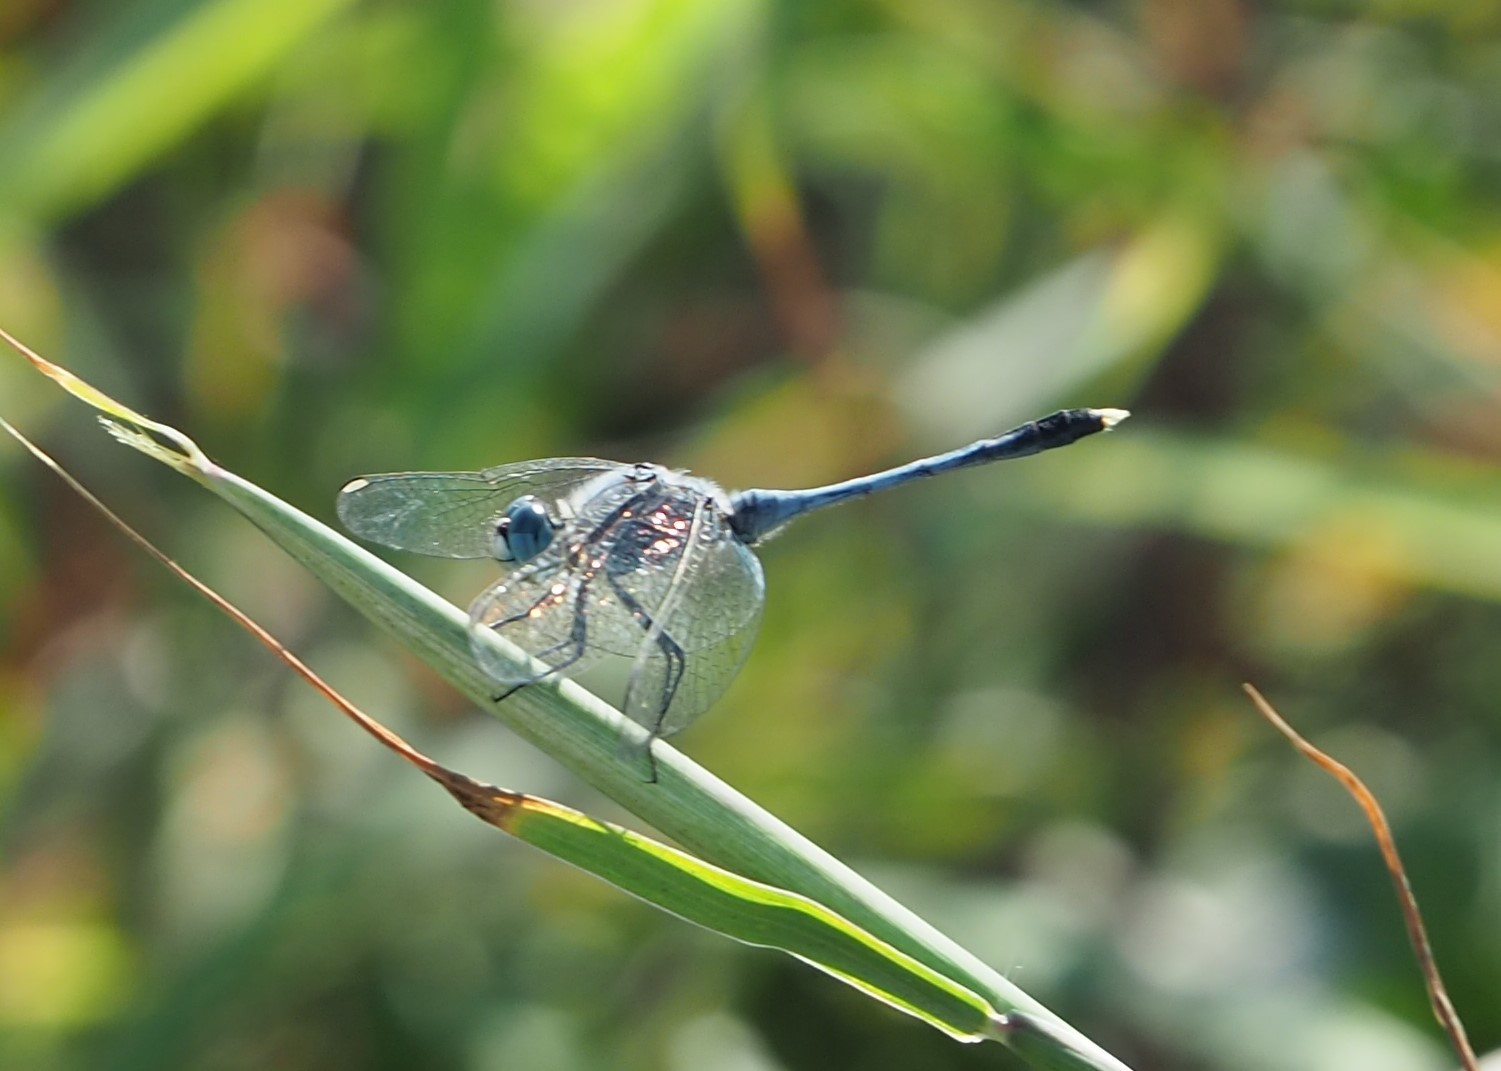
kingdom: Animalia
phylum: Arthropoda
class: Insecta
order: Odonata
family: Libellulidae
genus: Diplacodes
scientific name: Diplacodes trivialis
